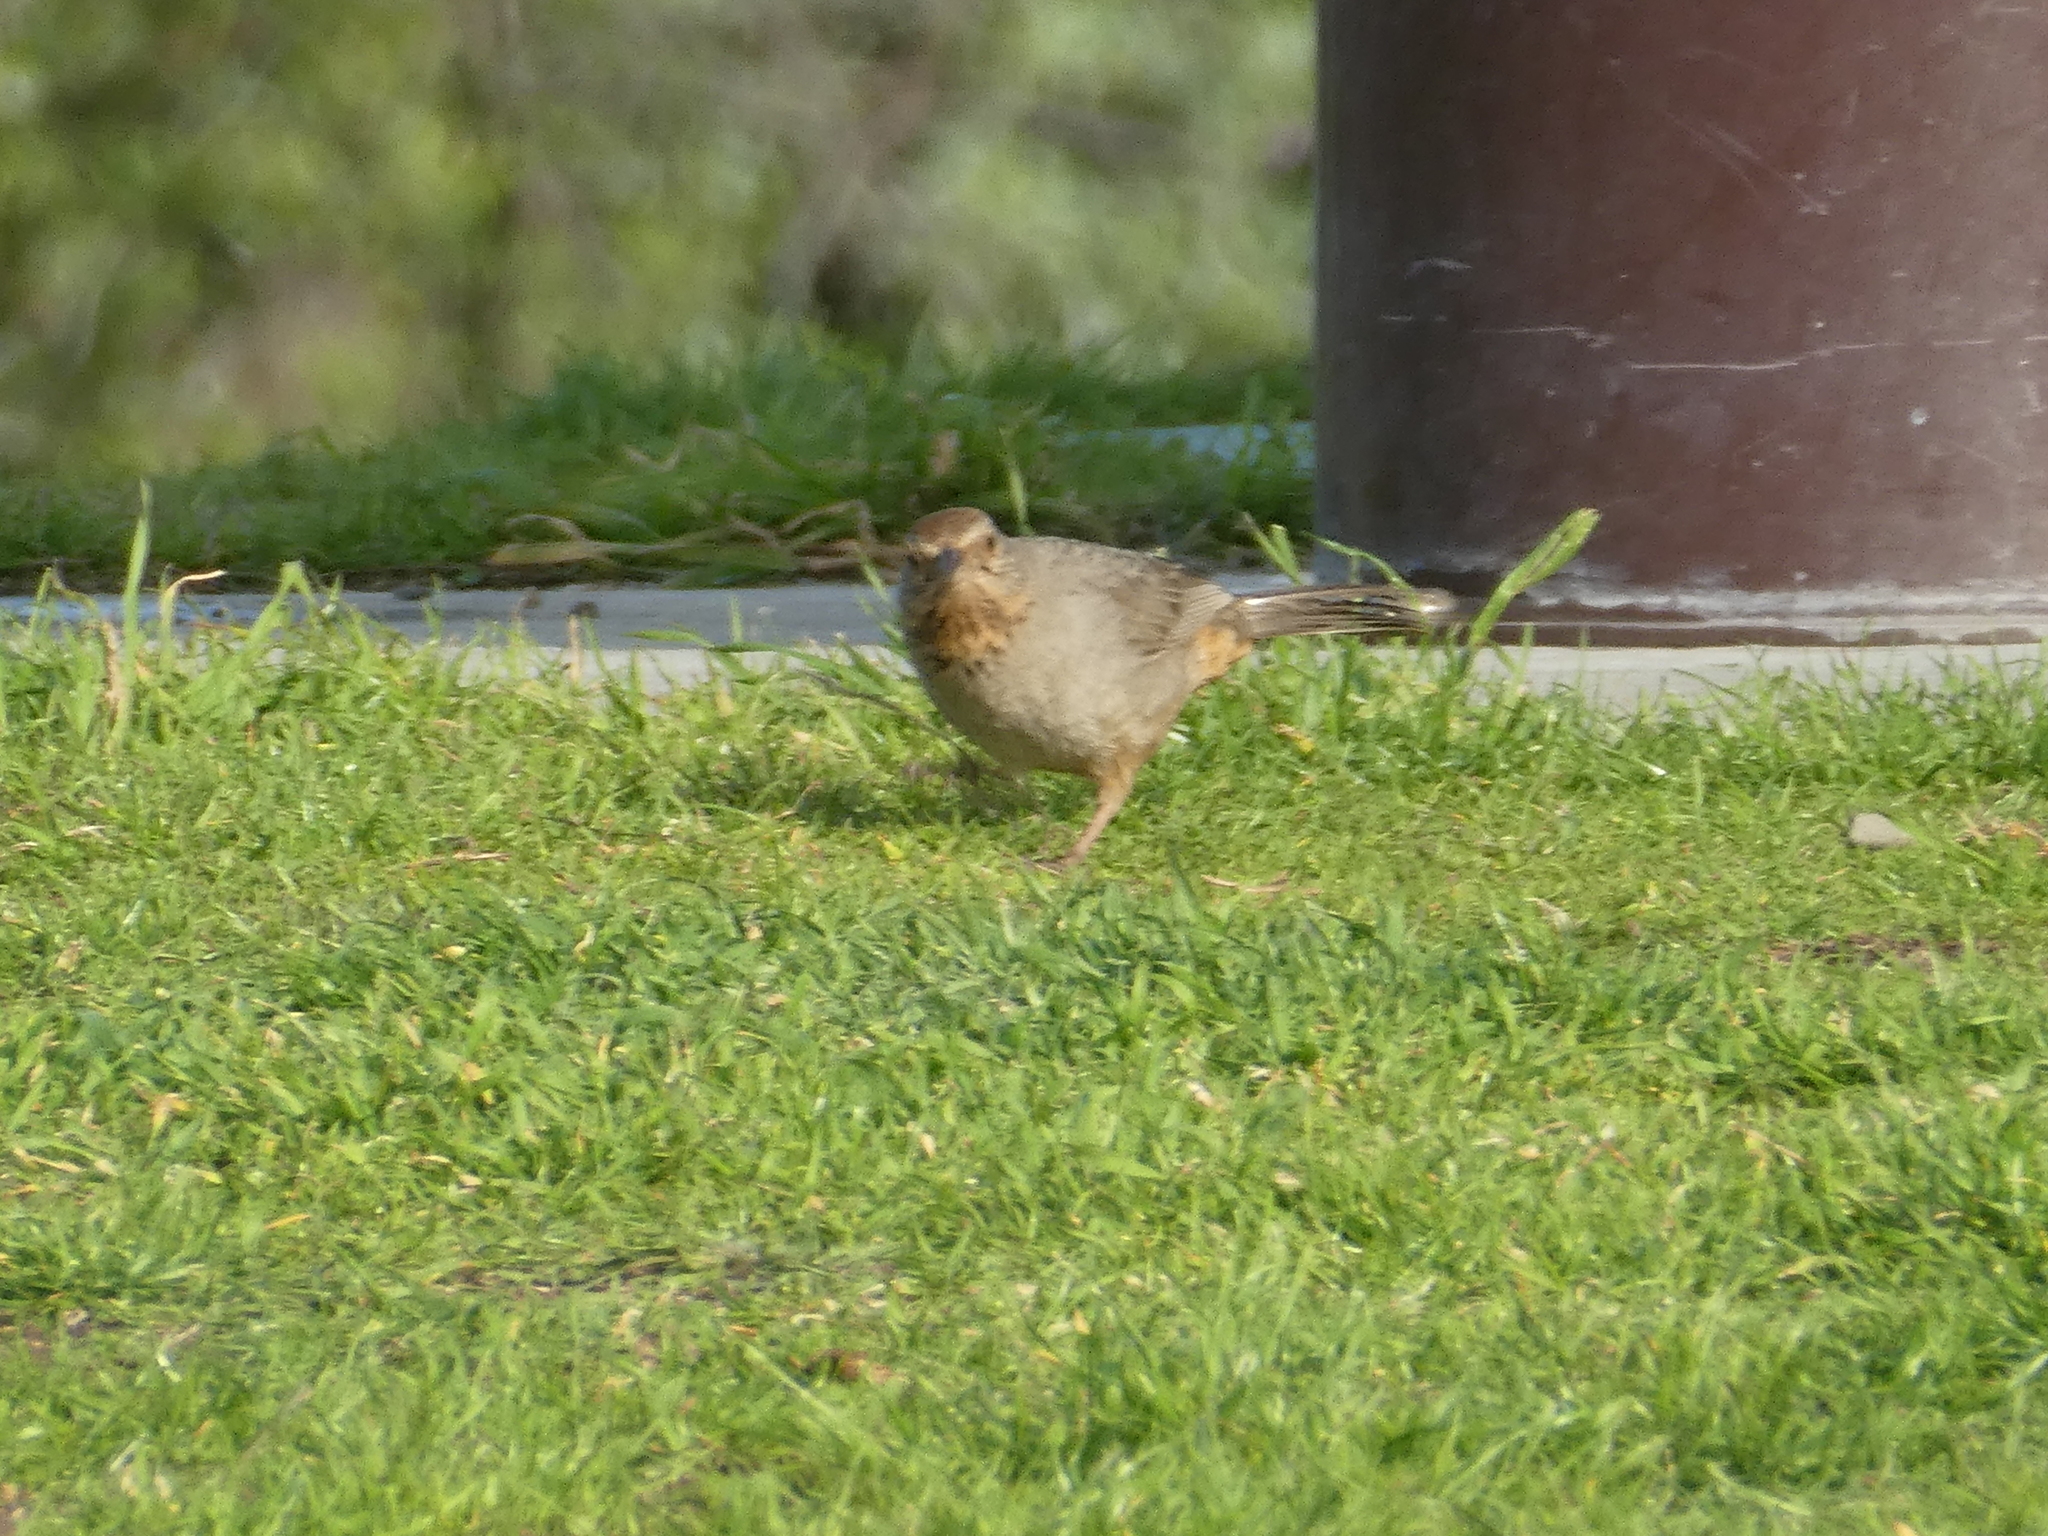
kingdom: Animalia
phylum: Chordata
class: Aves
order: Passeriformes
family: Passerellidae
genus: Melozone
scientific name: Melozone crissalis
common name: California towhee
